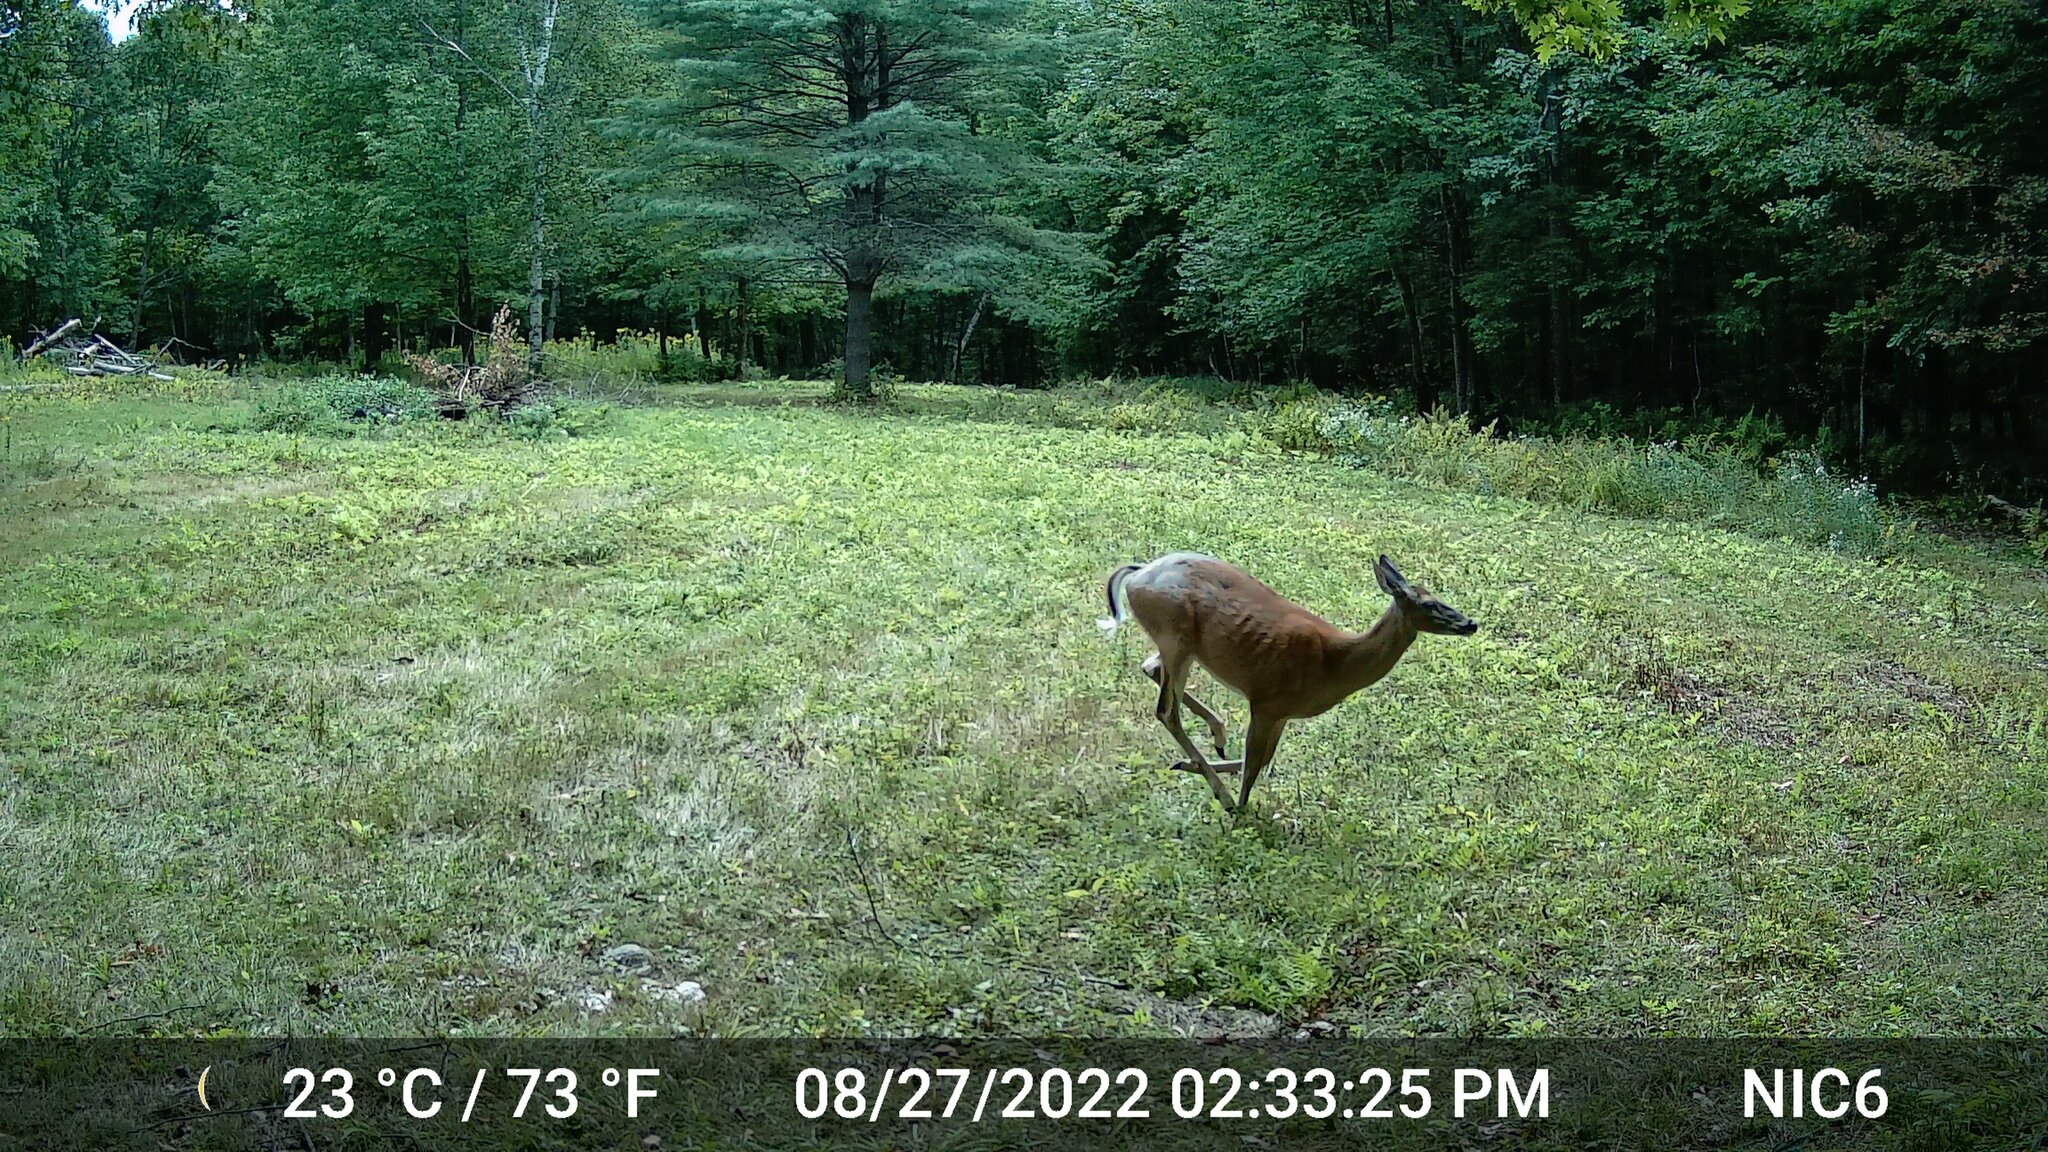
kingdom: Animalia
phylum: Chordata
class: Mammalia
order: Artiodactyla
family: Cervidae
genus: Odocoileus
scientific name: Odocoileus virginianus
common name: White-tailed deer
